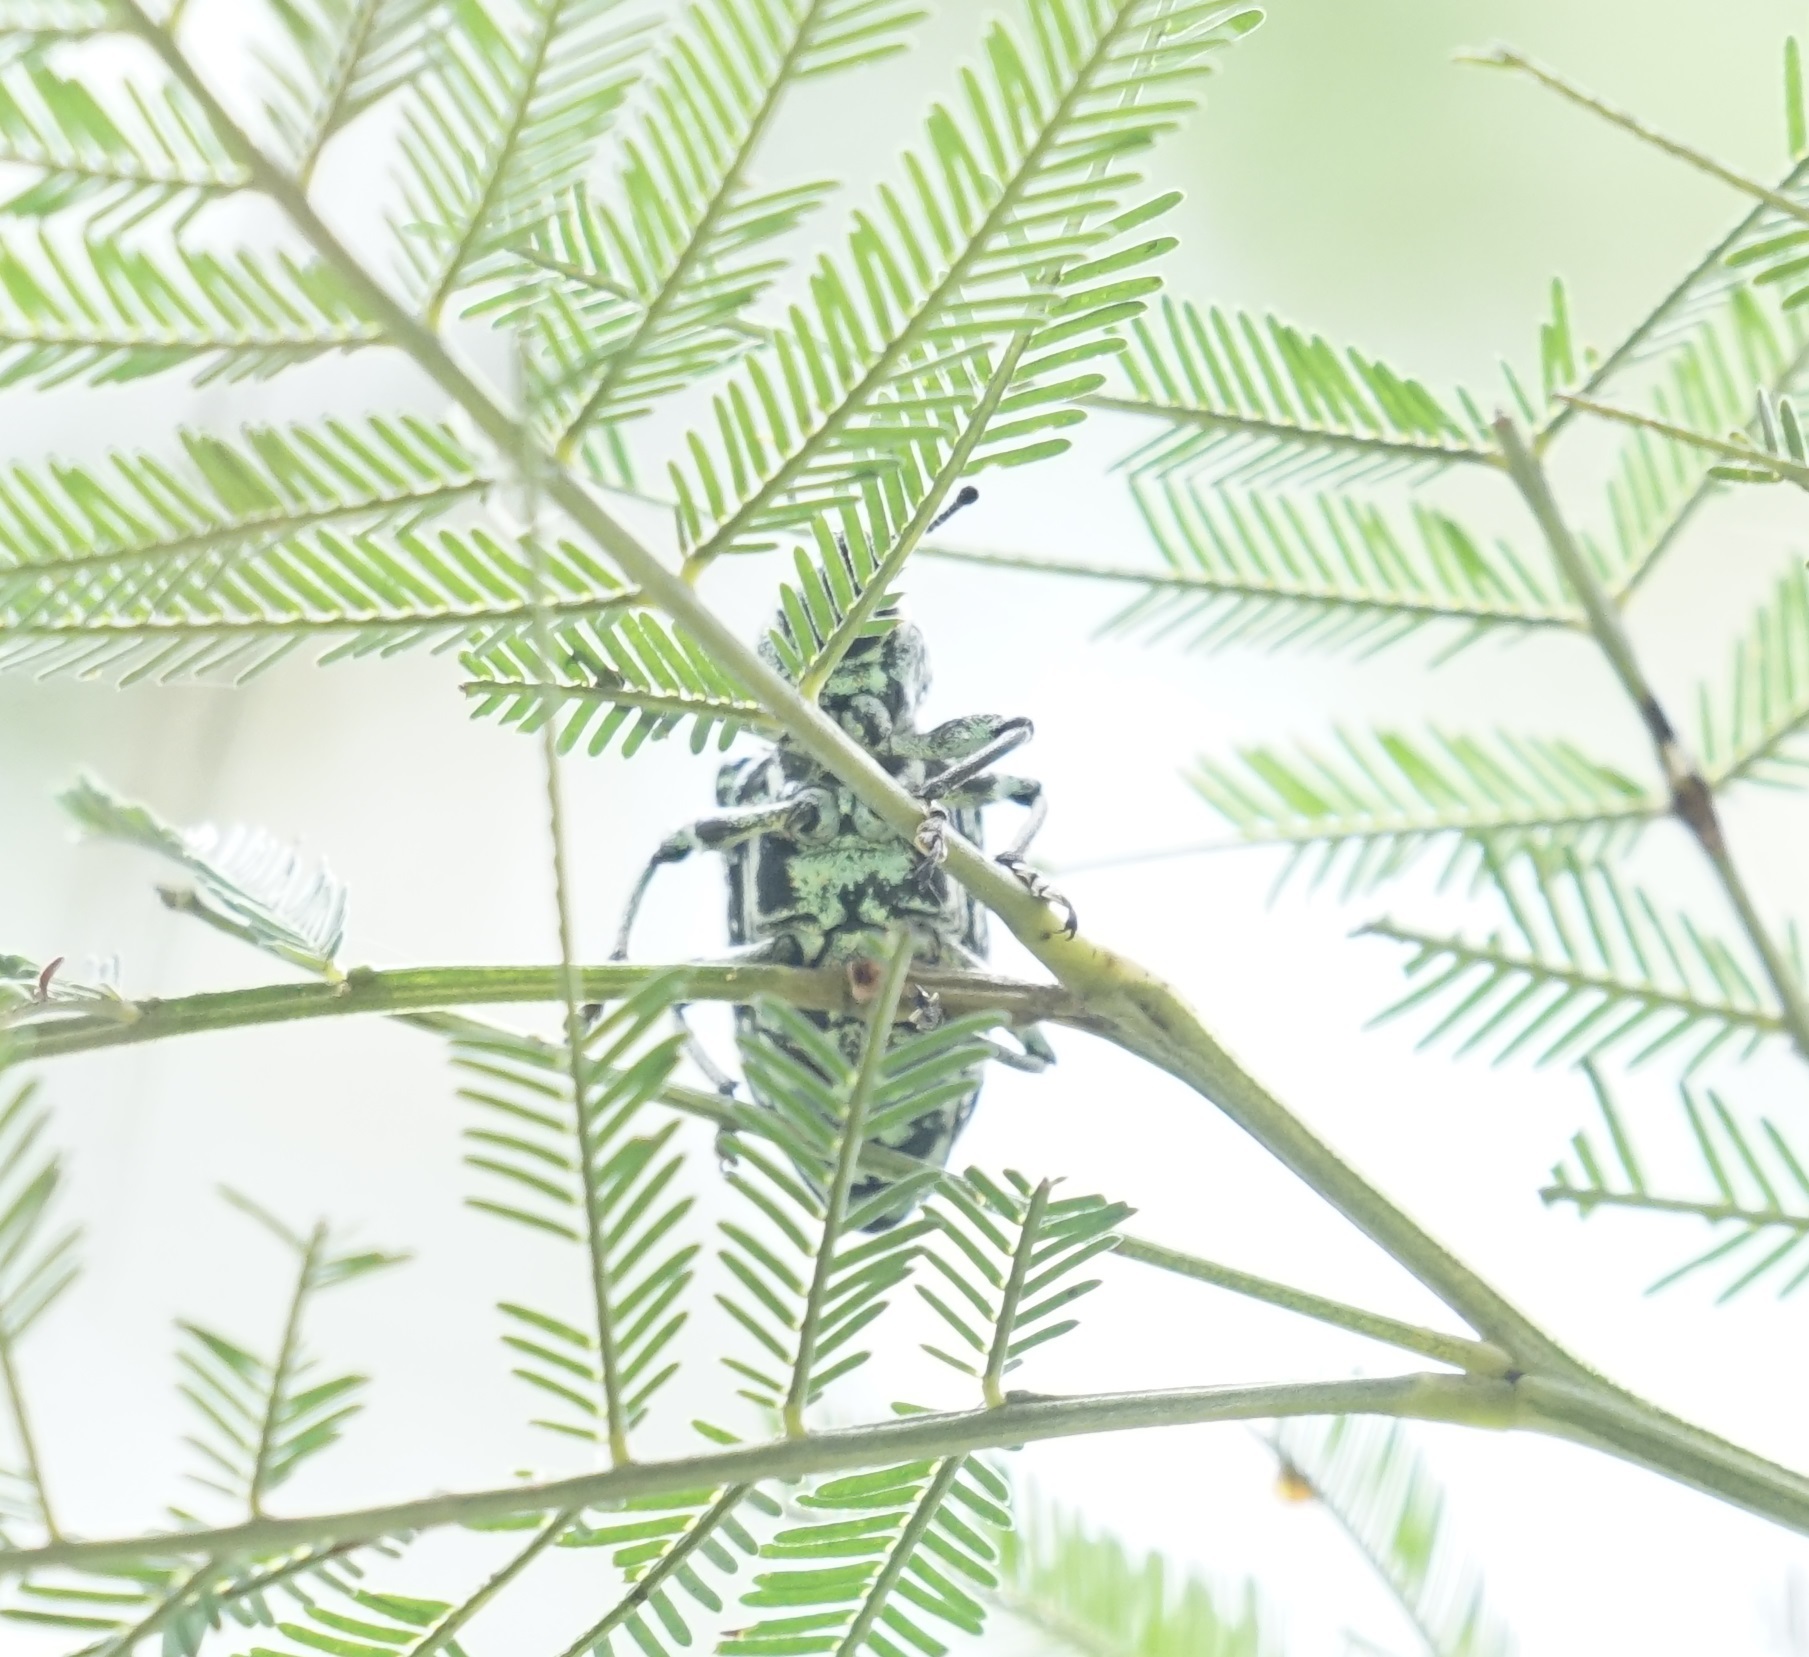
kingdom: Animalia
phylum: Arthropoda
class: Insecta
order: Coleoptera
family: Curculionidae
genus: Chrysolopus
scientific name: Chrysolopus spectabilis
